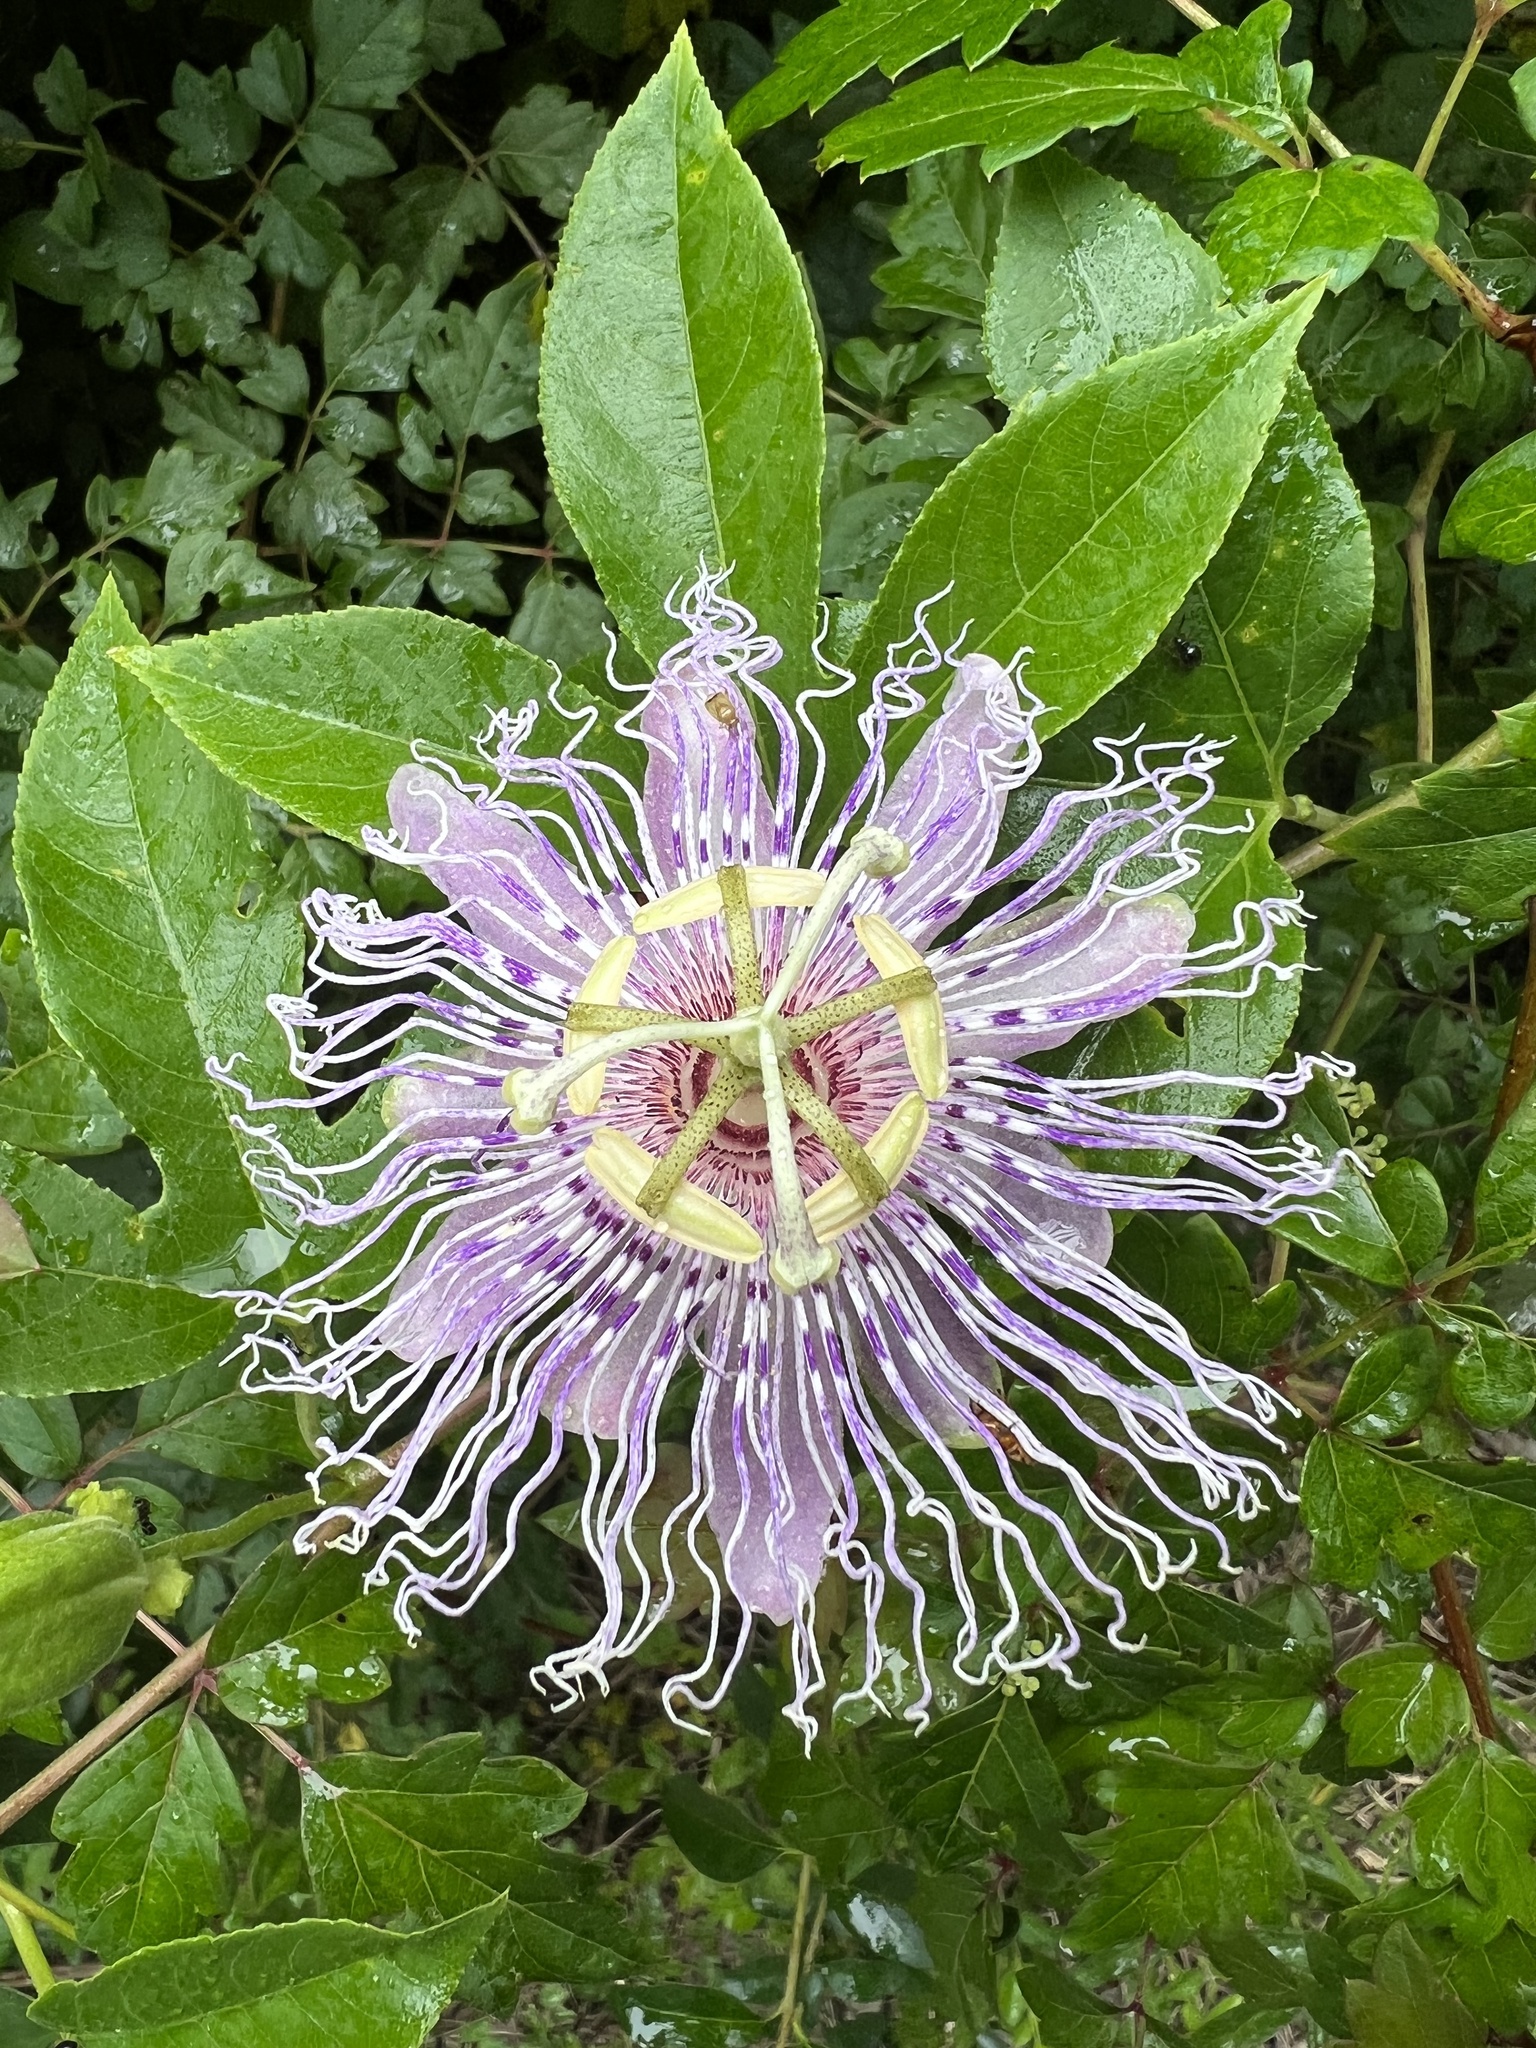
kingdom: Plantae
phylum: Tracheophyta
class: Magnoliopsida
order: Malpighiales
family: Passifloraceae
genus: Passiflora
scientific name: Passiflora incarnata
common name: Apricot-vine
